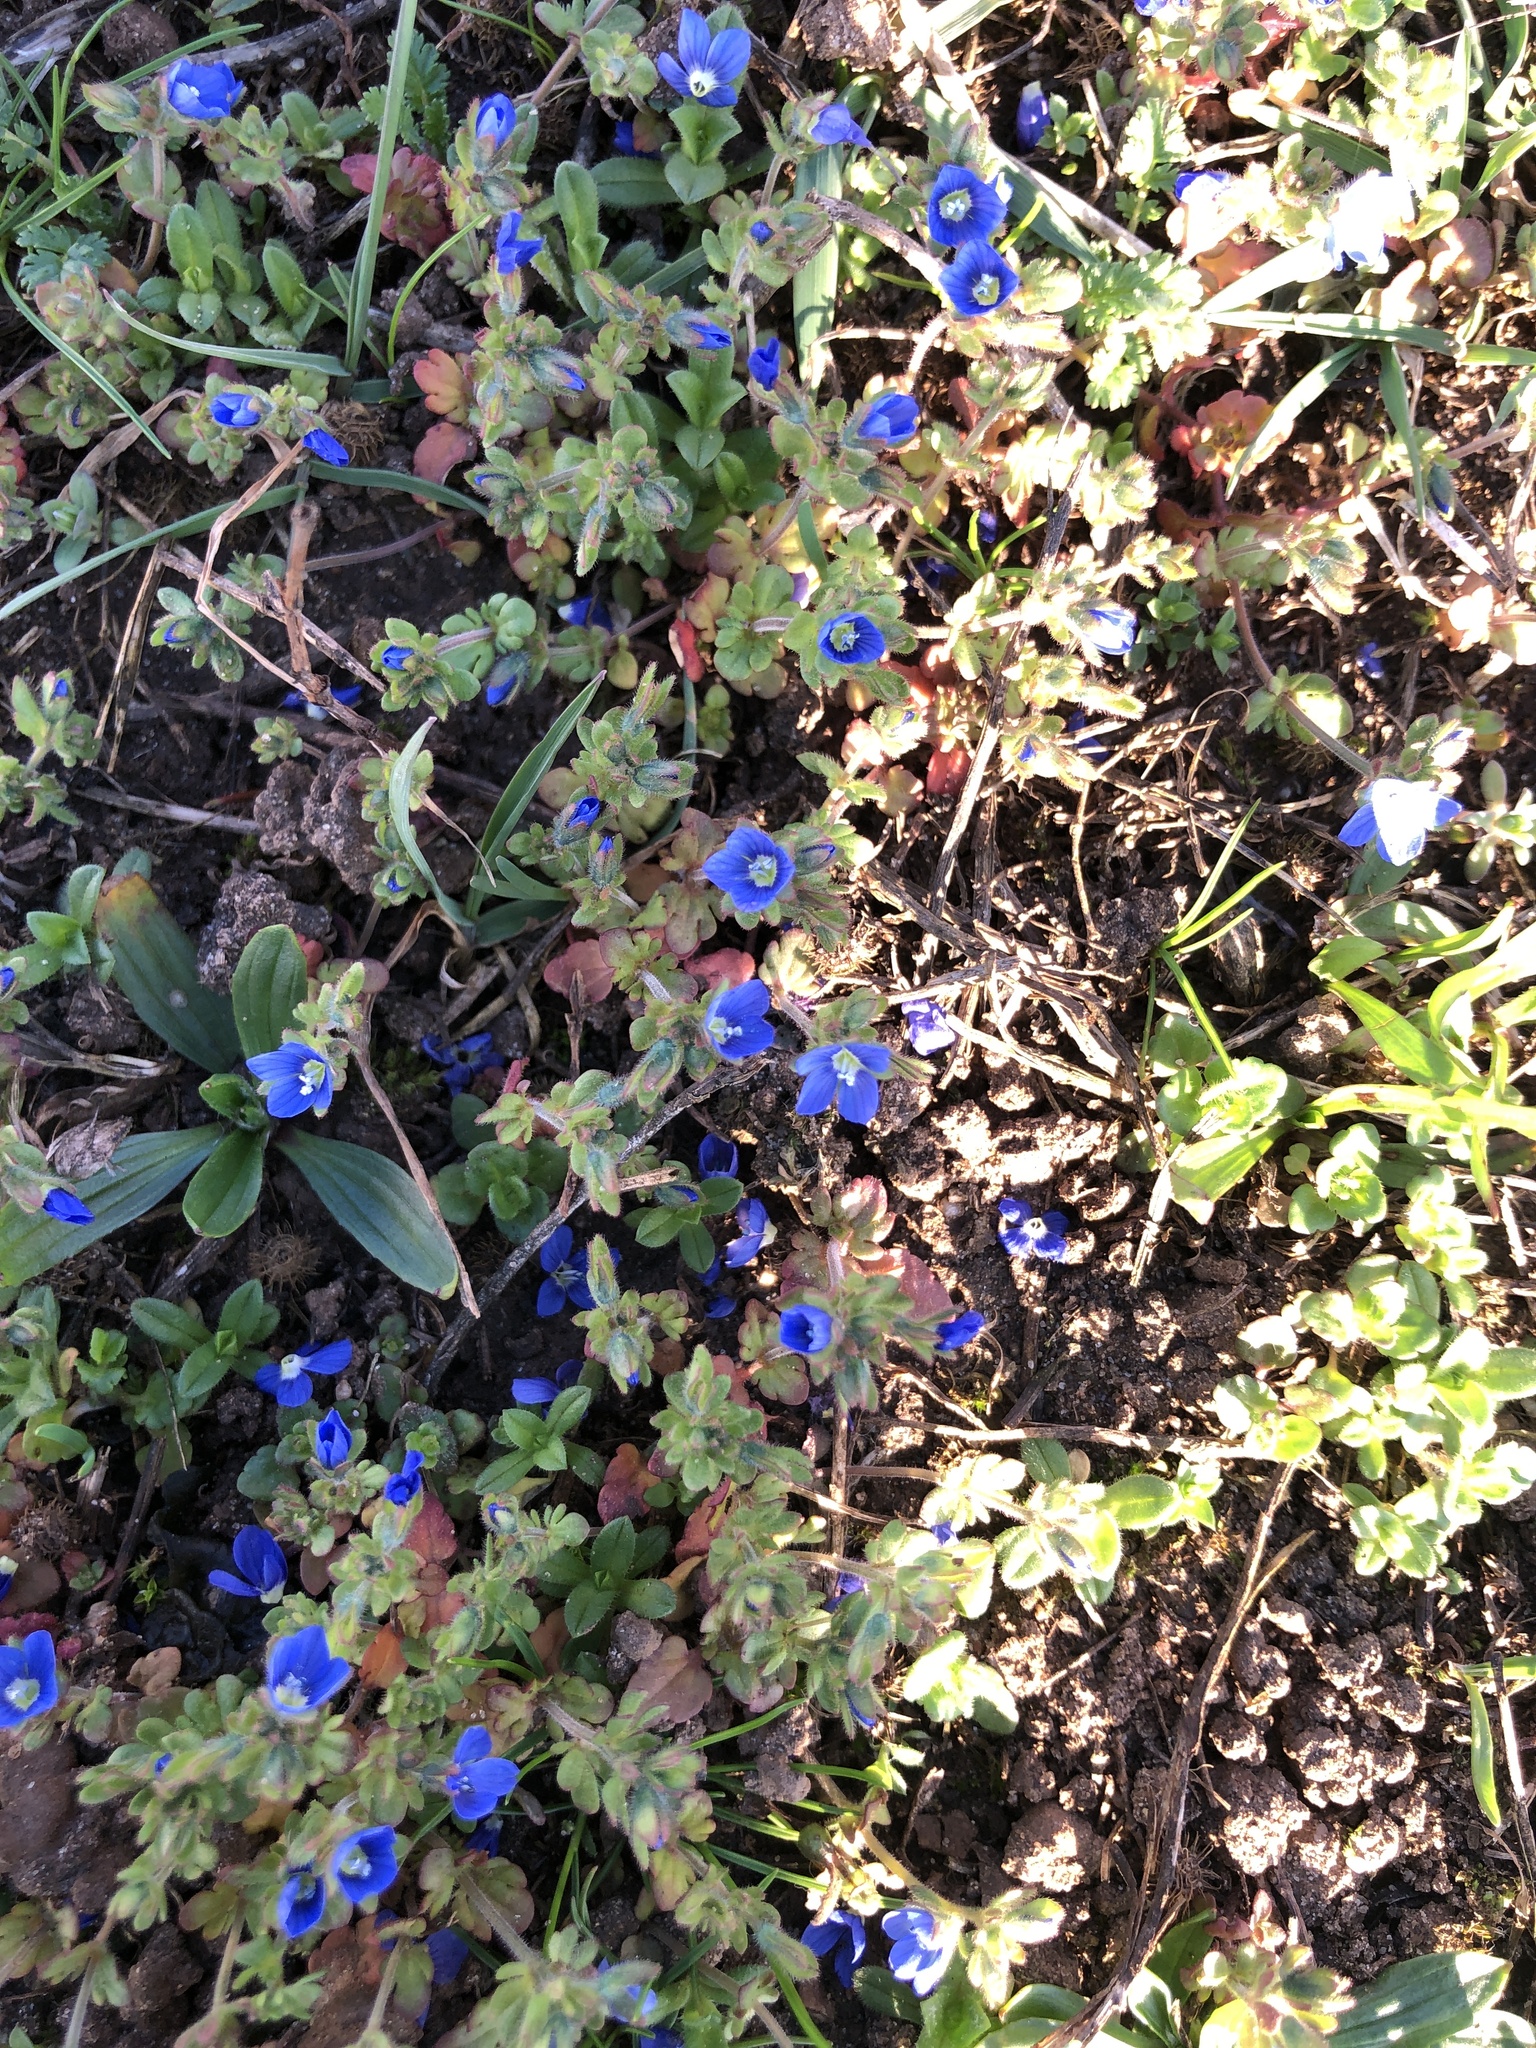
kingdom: Plantae
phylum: Tracheophyta
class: Magnoliopsida
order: Lamiales
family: Plantaginaceae
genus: Veronica
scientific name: Veronica triphyllos
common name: Fingered speedwell
